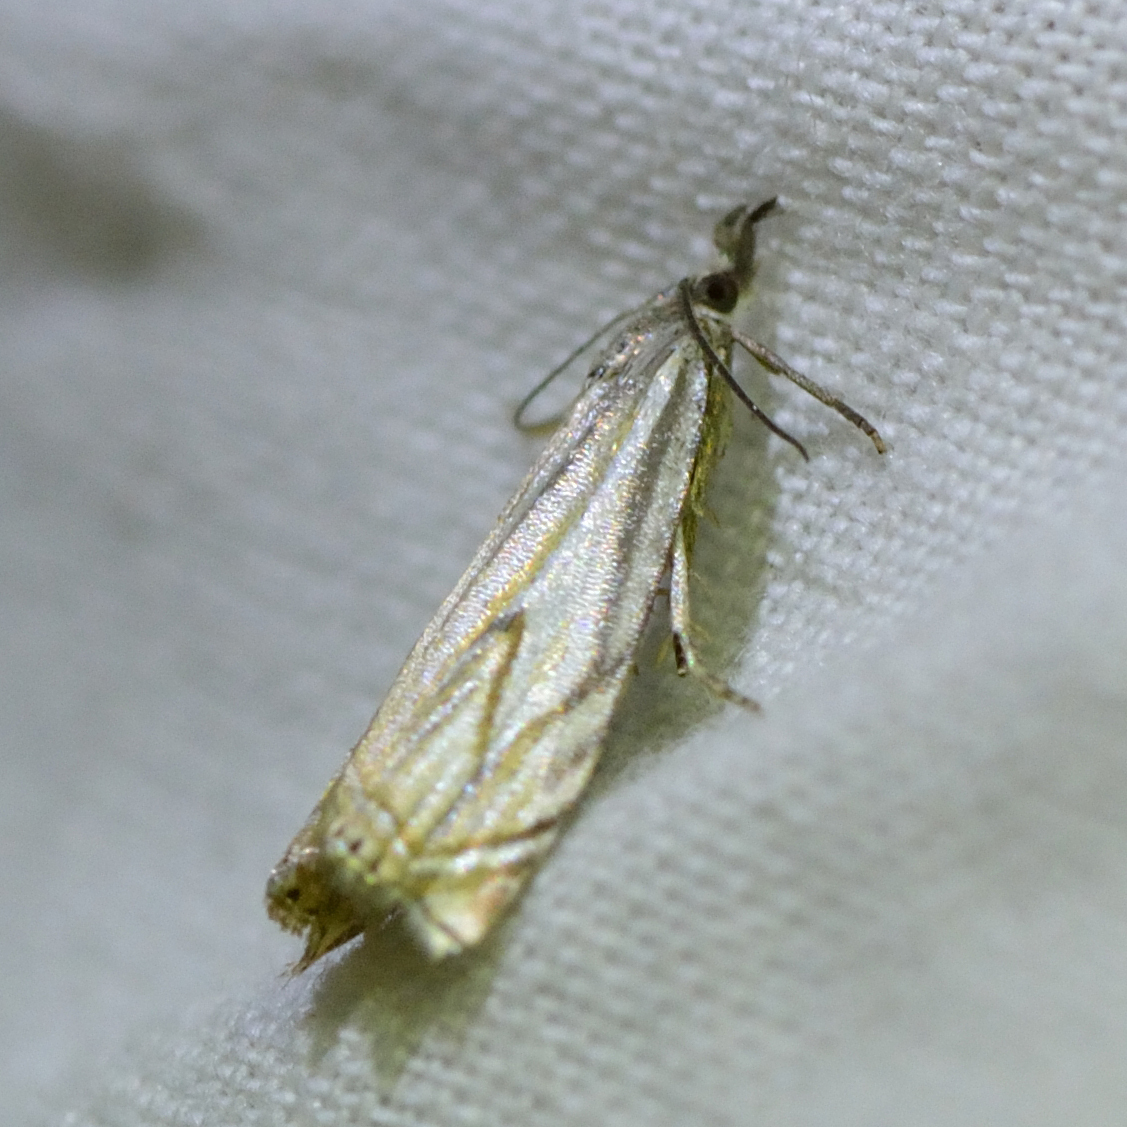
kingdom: Animalia
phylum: Arthropoda
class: Insecta
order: Lepidoptera
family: Crambidae
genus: Crambus
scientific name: Crambus nemorella
